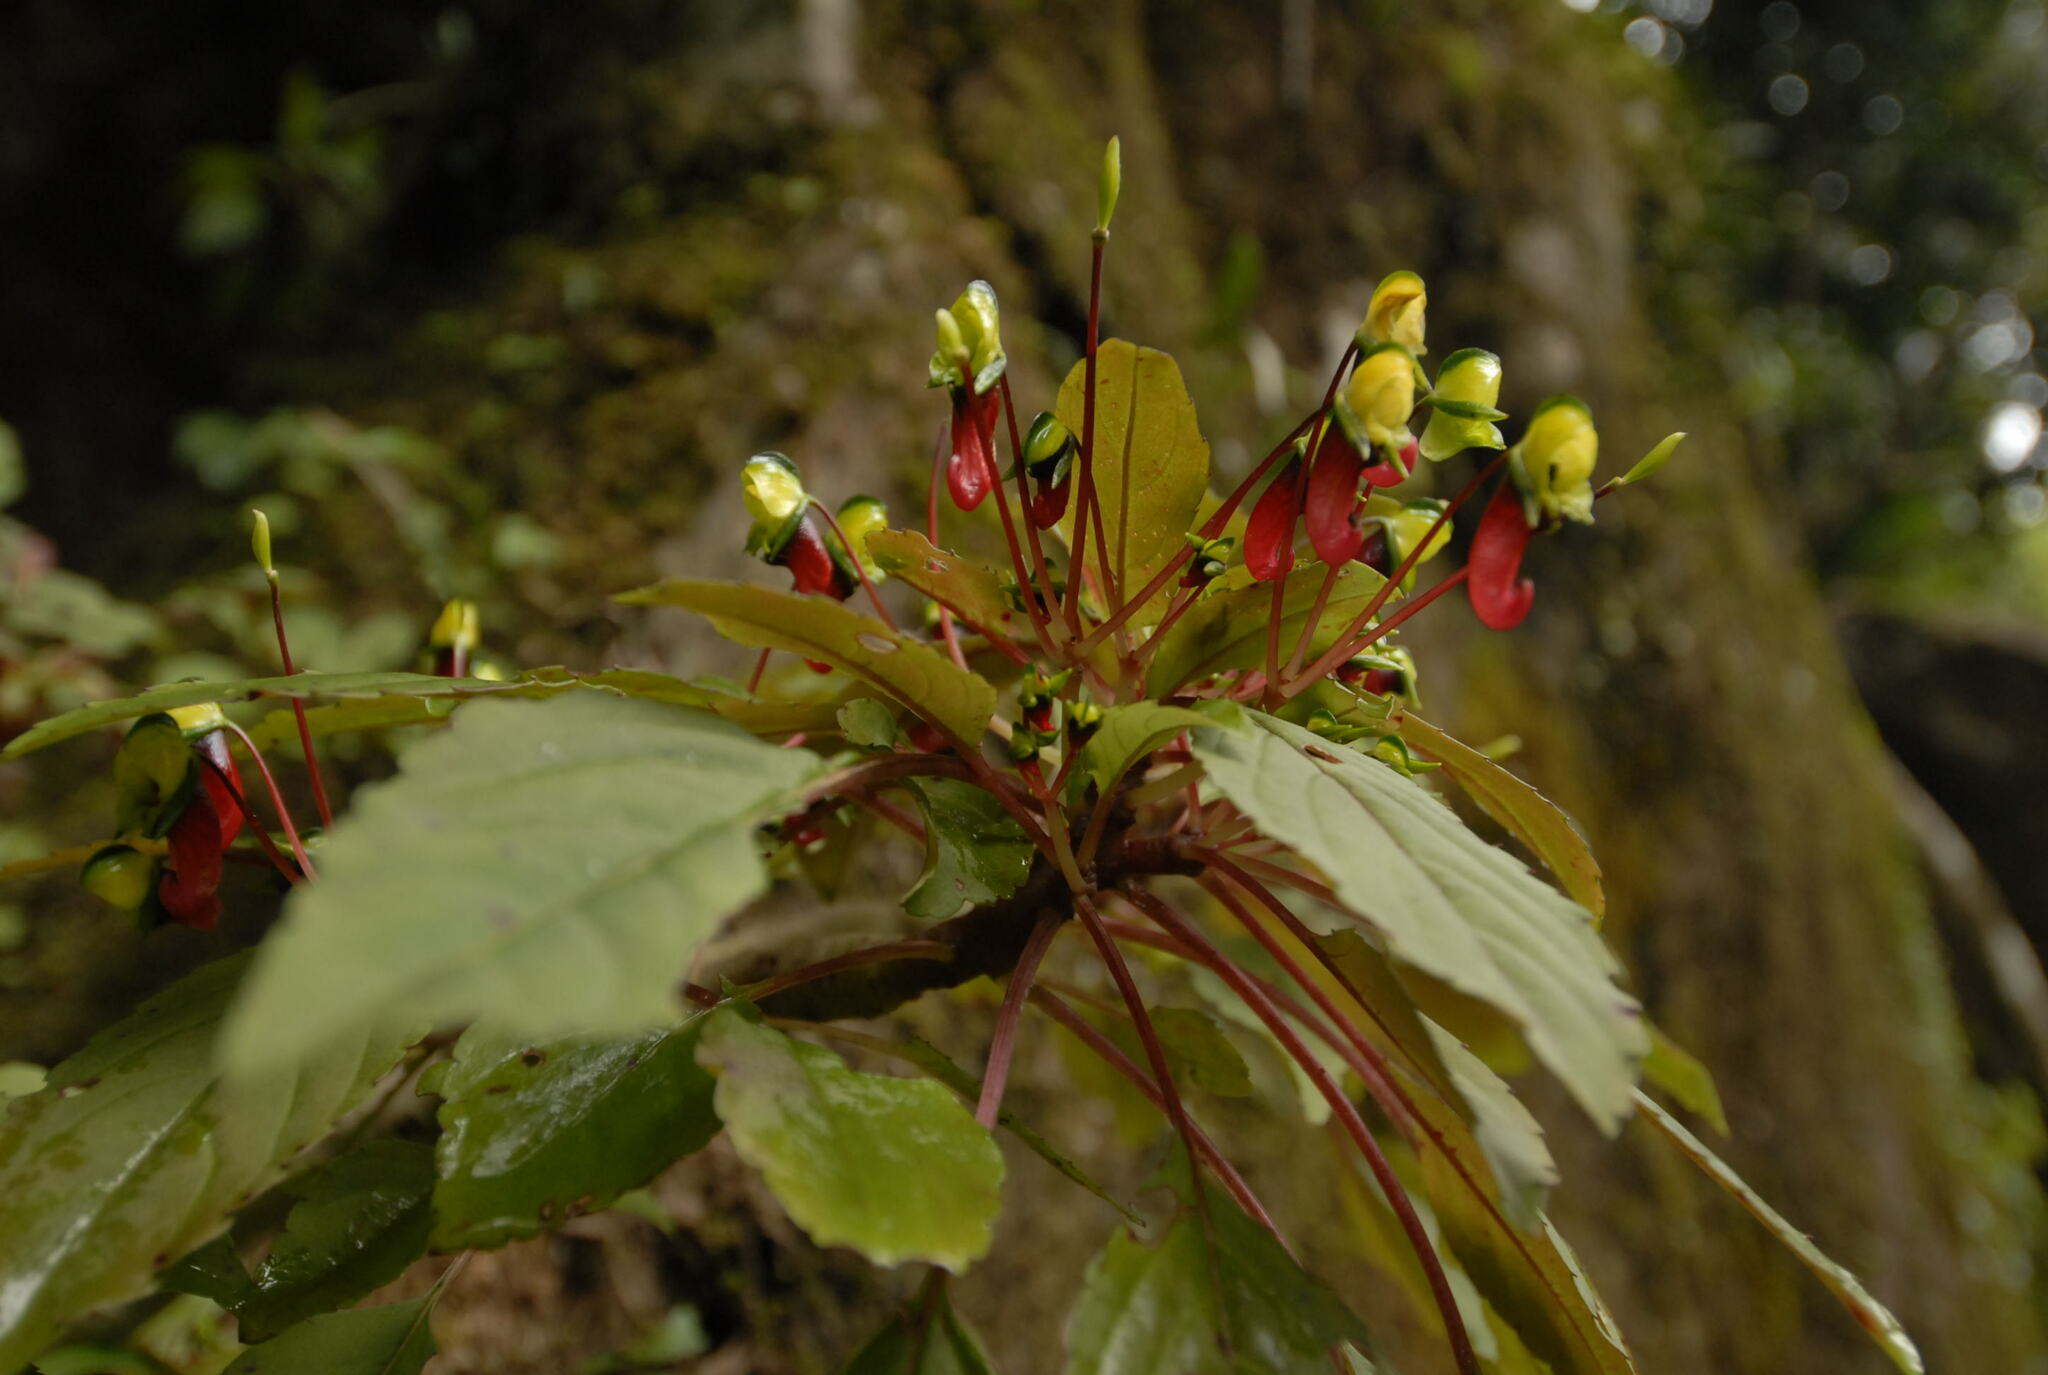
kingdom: Plantae
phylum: Tracheophyta
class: Magnoliopsida
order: Ericales
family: Balsaminaceae
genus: Impatiens
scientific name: Impatiens parasitica
